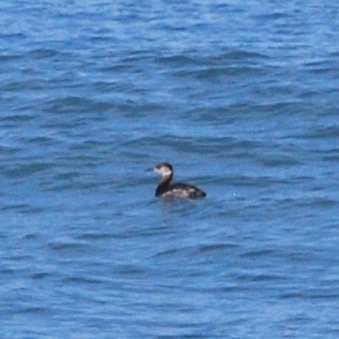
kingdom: Animalia
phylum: Chordata
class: Aves
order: Podicipediformes
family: Podicipedidae
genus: Podiceps
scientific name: Podiceps grisegena
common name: Red-necked grebe
